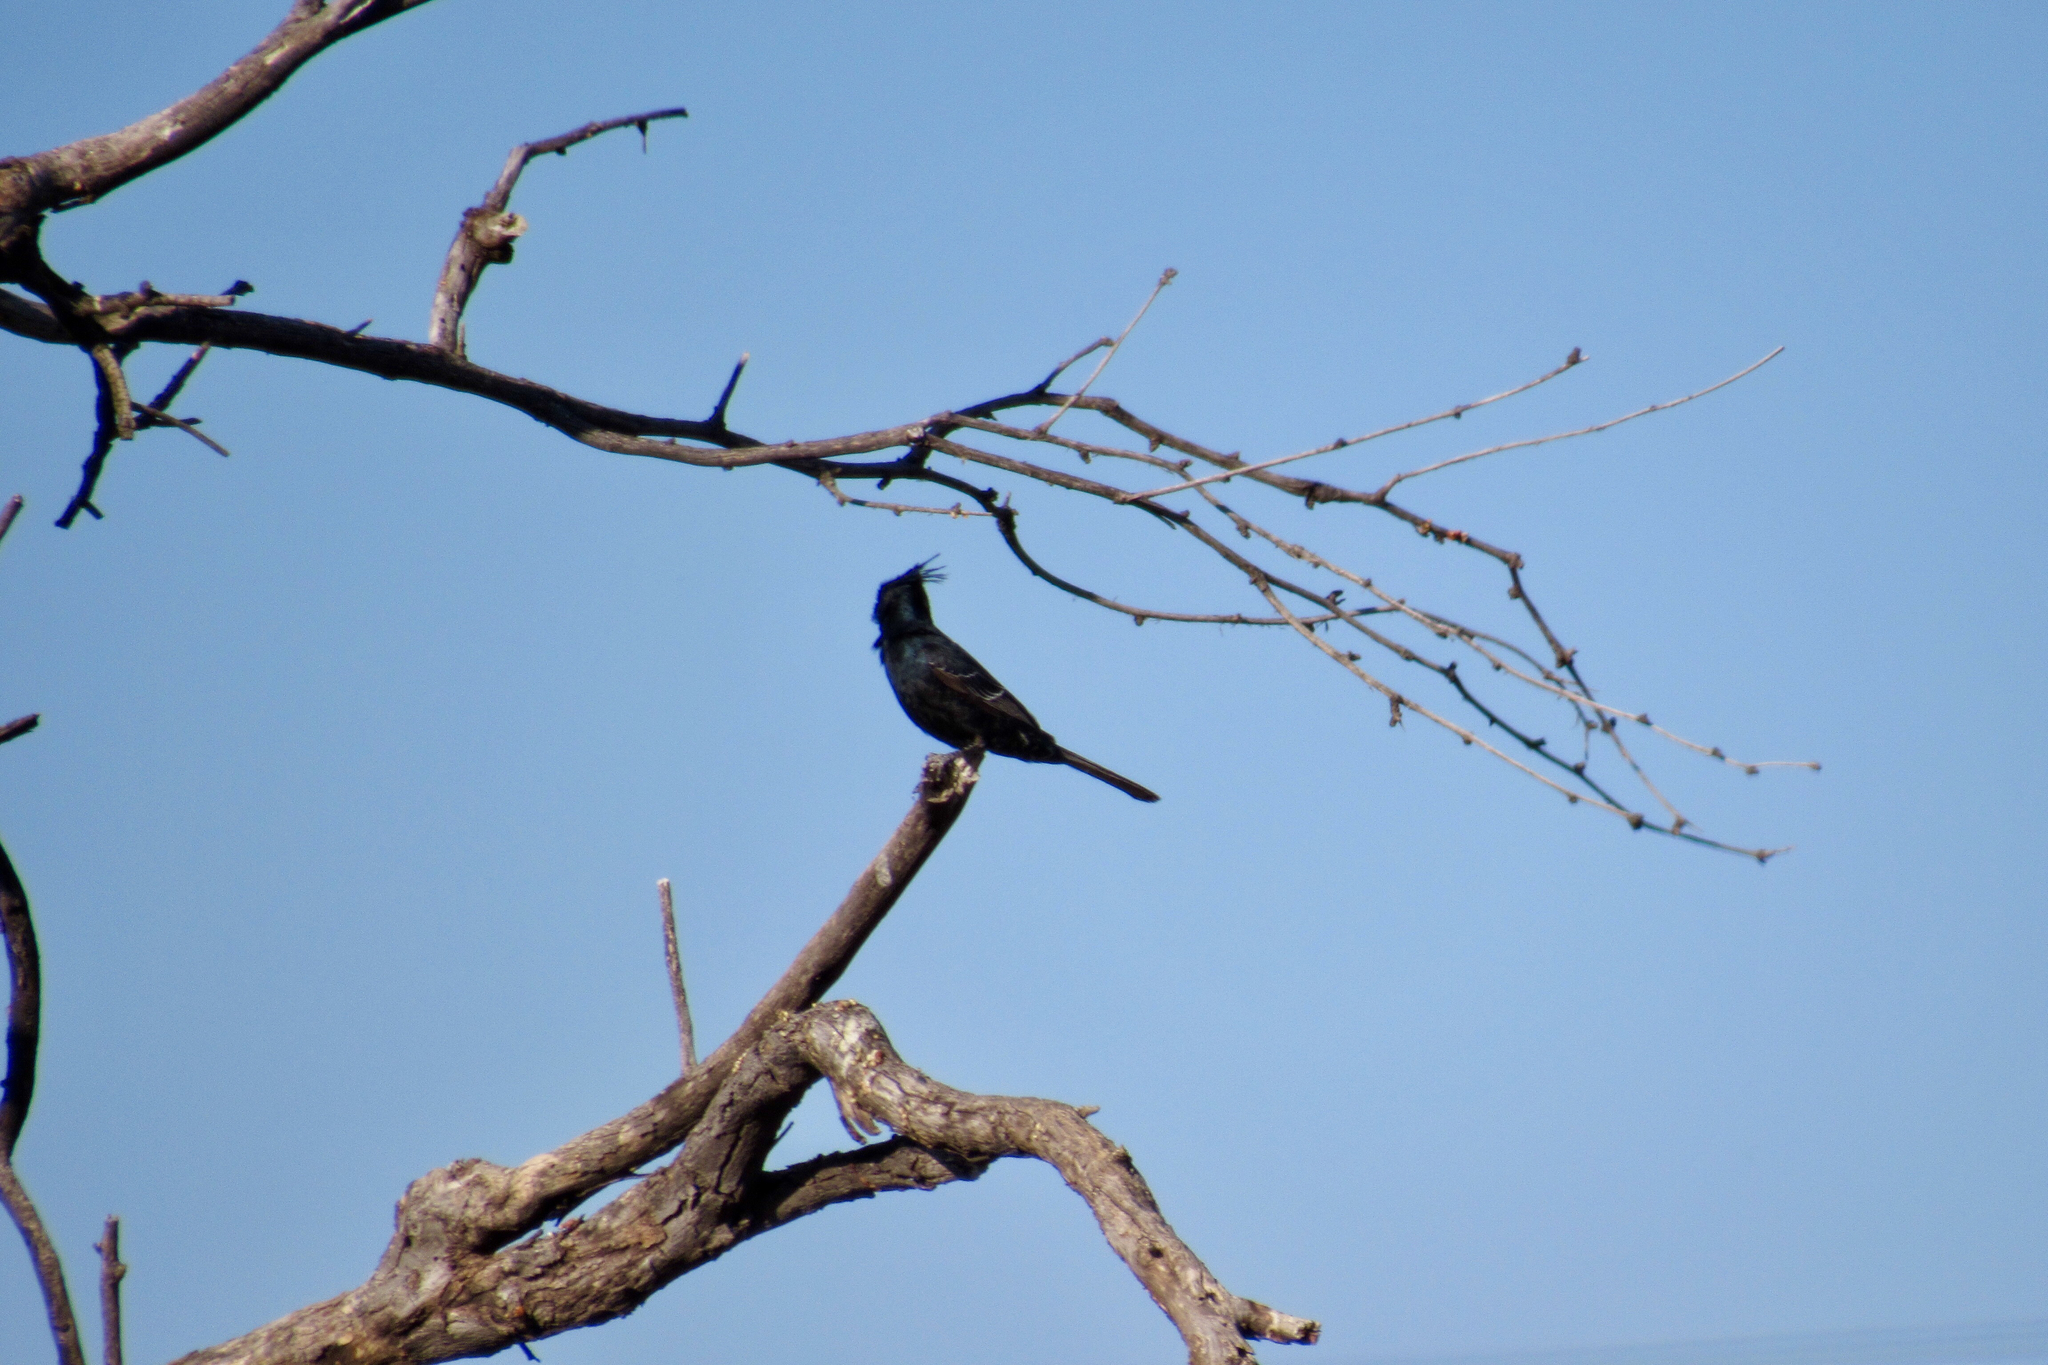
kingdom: Animalia
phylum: Chordata
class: Aves
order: Passeriformes
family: Ptilogonatidae
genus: Phainopepla
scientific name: Phainopepla nitens
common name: Phainopepla
